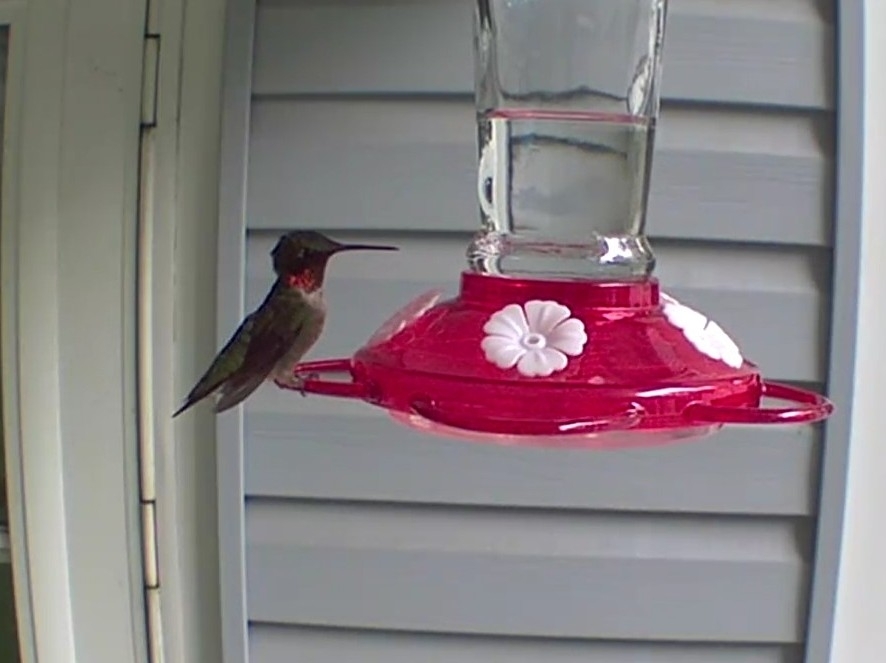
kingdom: Animalia
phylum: Chordata
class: Aves
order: Apodiformes
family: Trochilidae
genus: Archilochus
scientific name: Archilochus colubris
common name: Ruby-throated hummingbird
